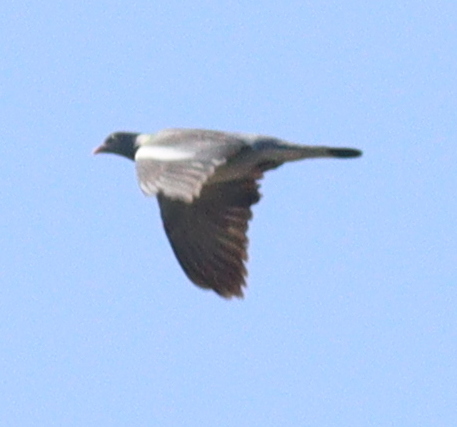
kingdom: Animalia
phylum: Chordata
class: Aves
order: Columbiformes
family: Columbidae
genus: Columba
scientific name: Columba palumbus
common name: Common wood pigeon
